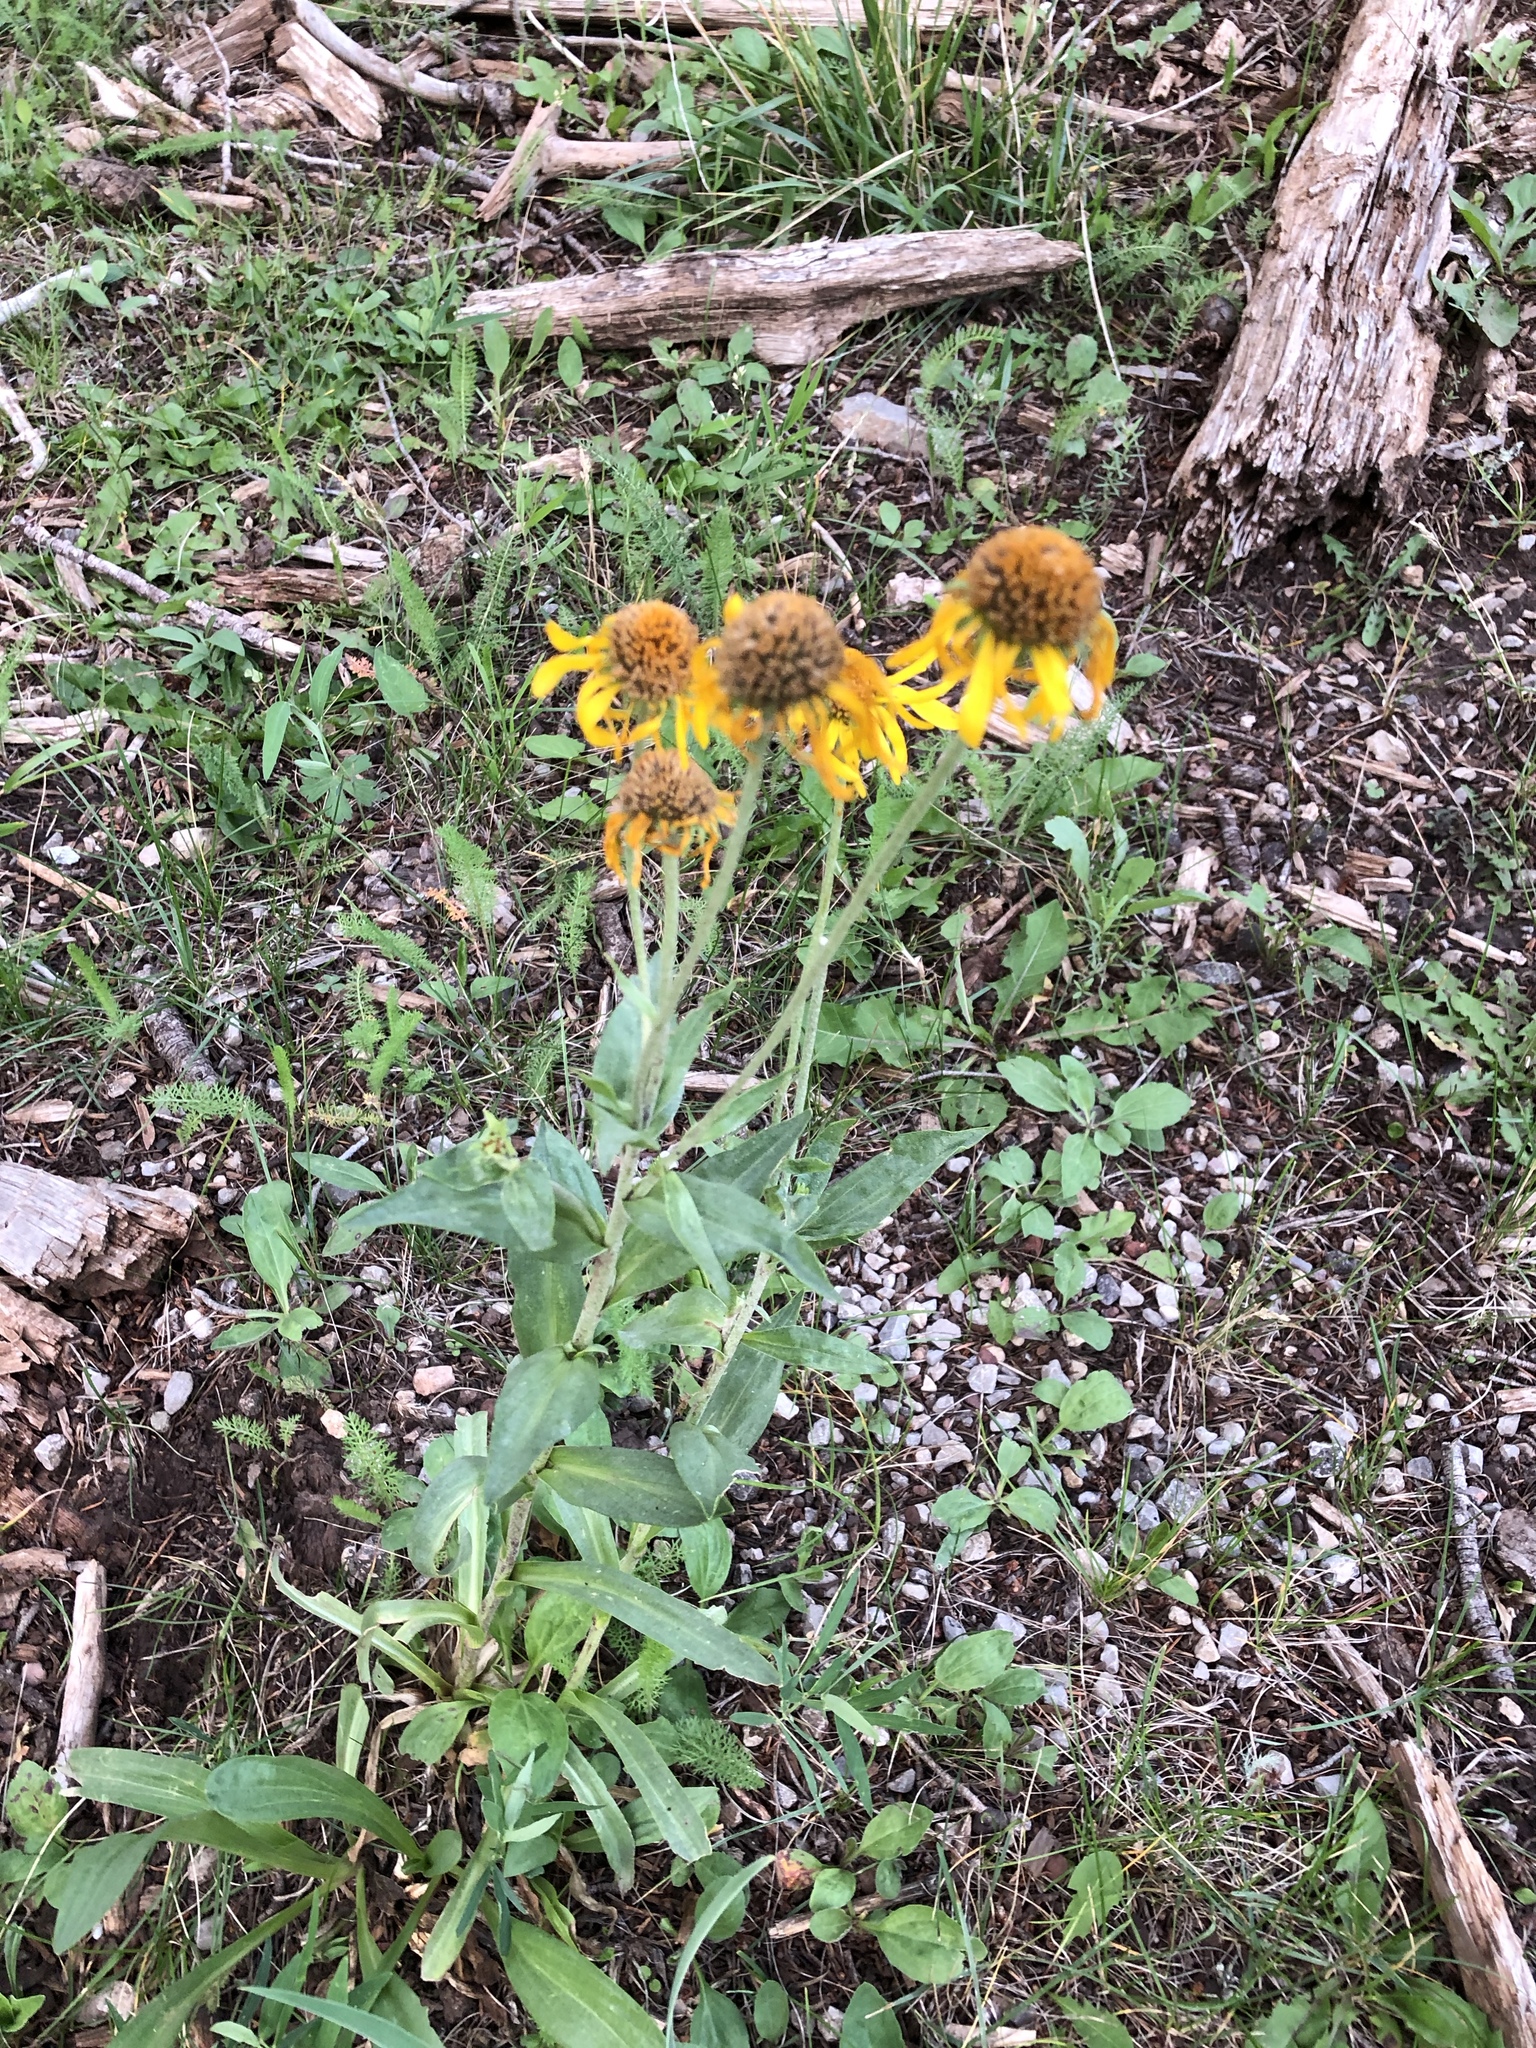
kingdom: Plantae
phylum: Tracheophyta
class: Magnoliopsida
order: Asterales
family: Asteraceae
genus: Hymenoxys
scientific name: Hymenoxys hoopesii
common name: Orange-sneezeweed
